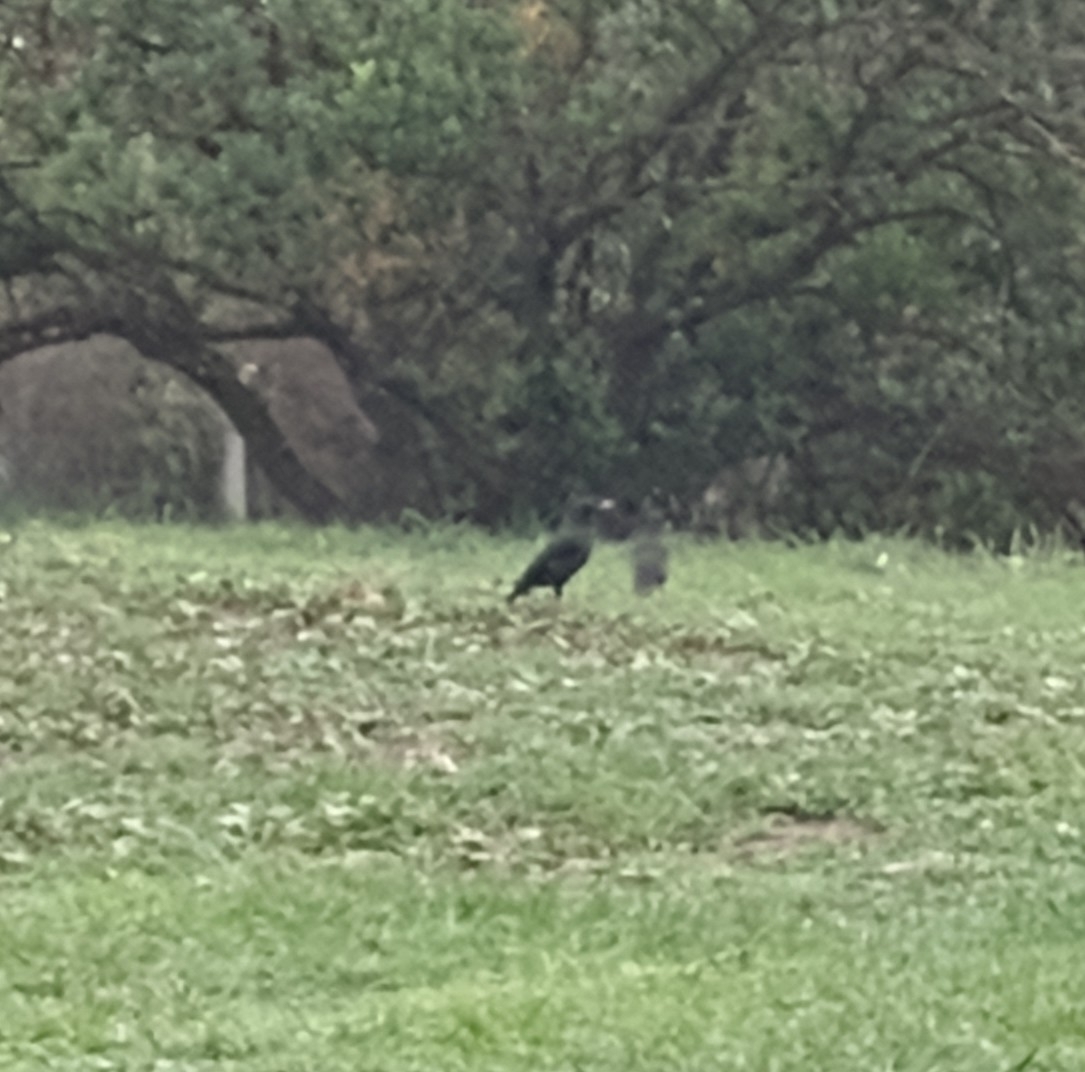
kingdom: Animalia
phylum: Chordata
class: Aves
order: Passeriformes
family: Sturnidae
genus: Acridotheres
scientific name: Acridotheres cristatellus
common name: Crested myna
